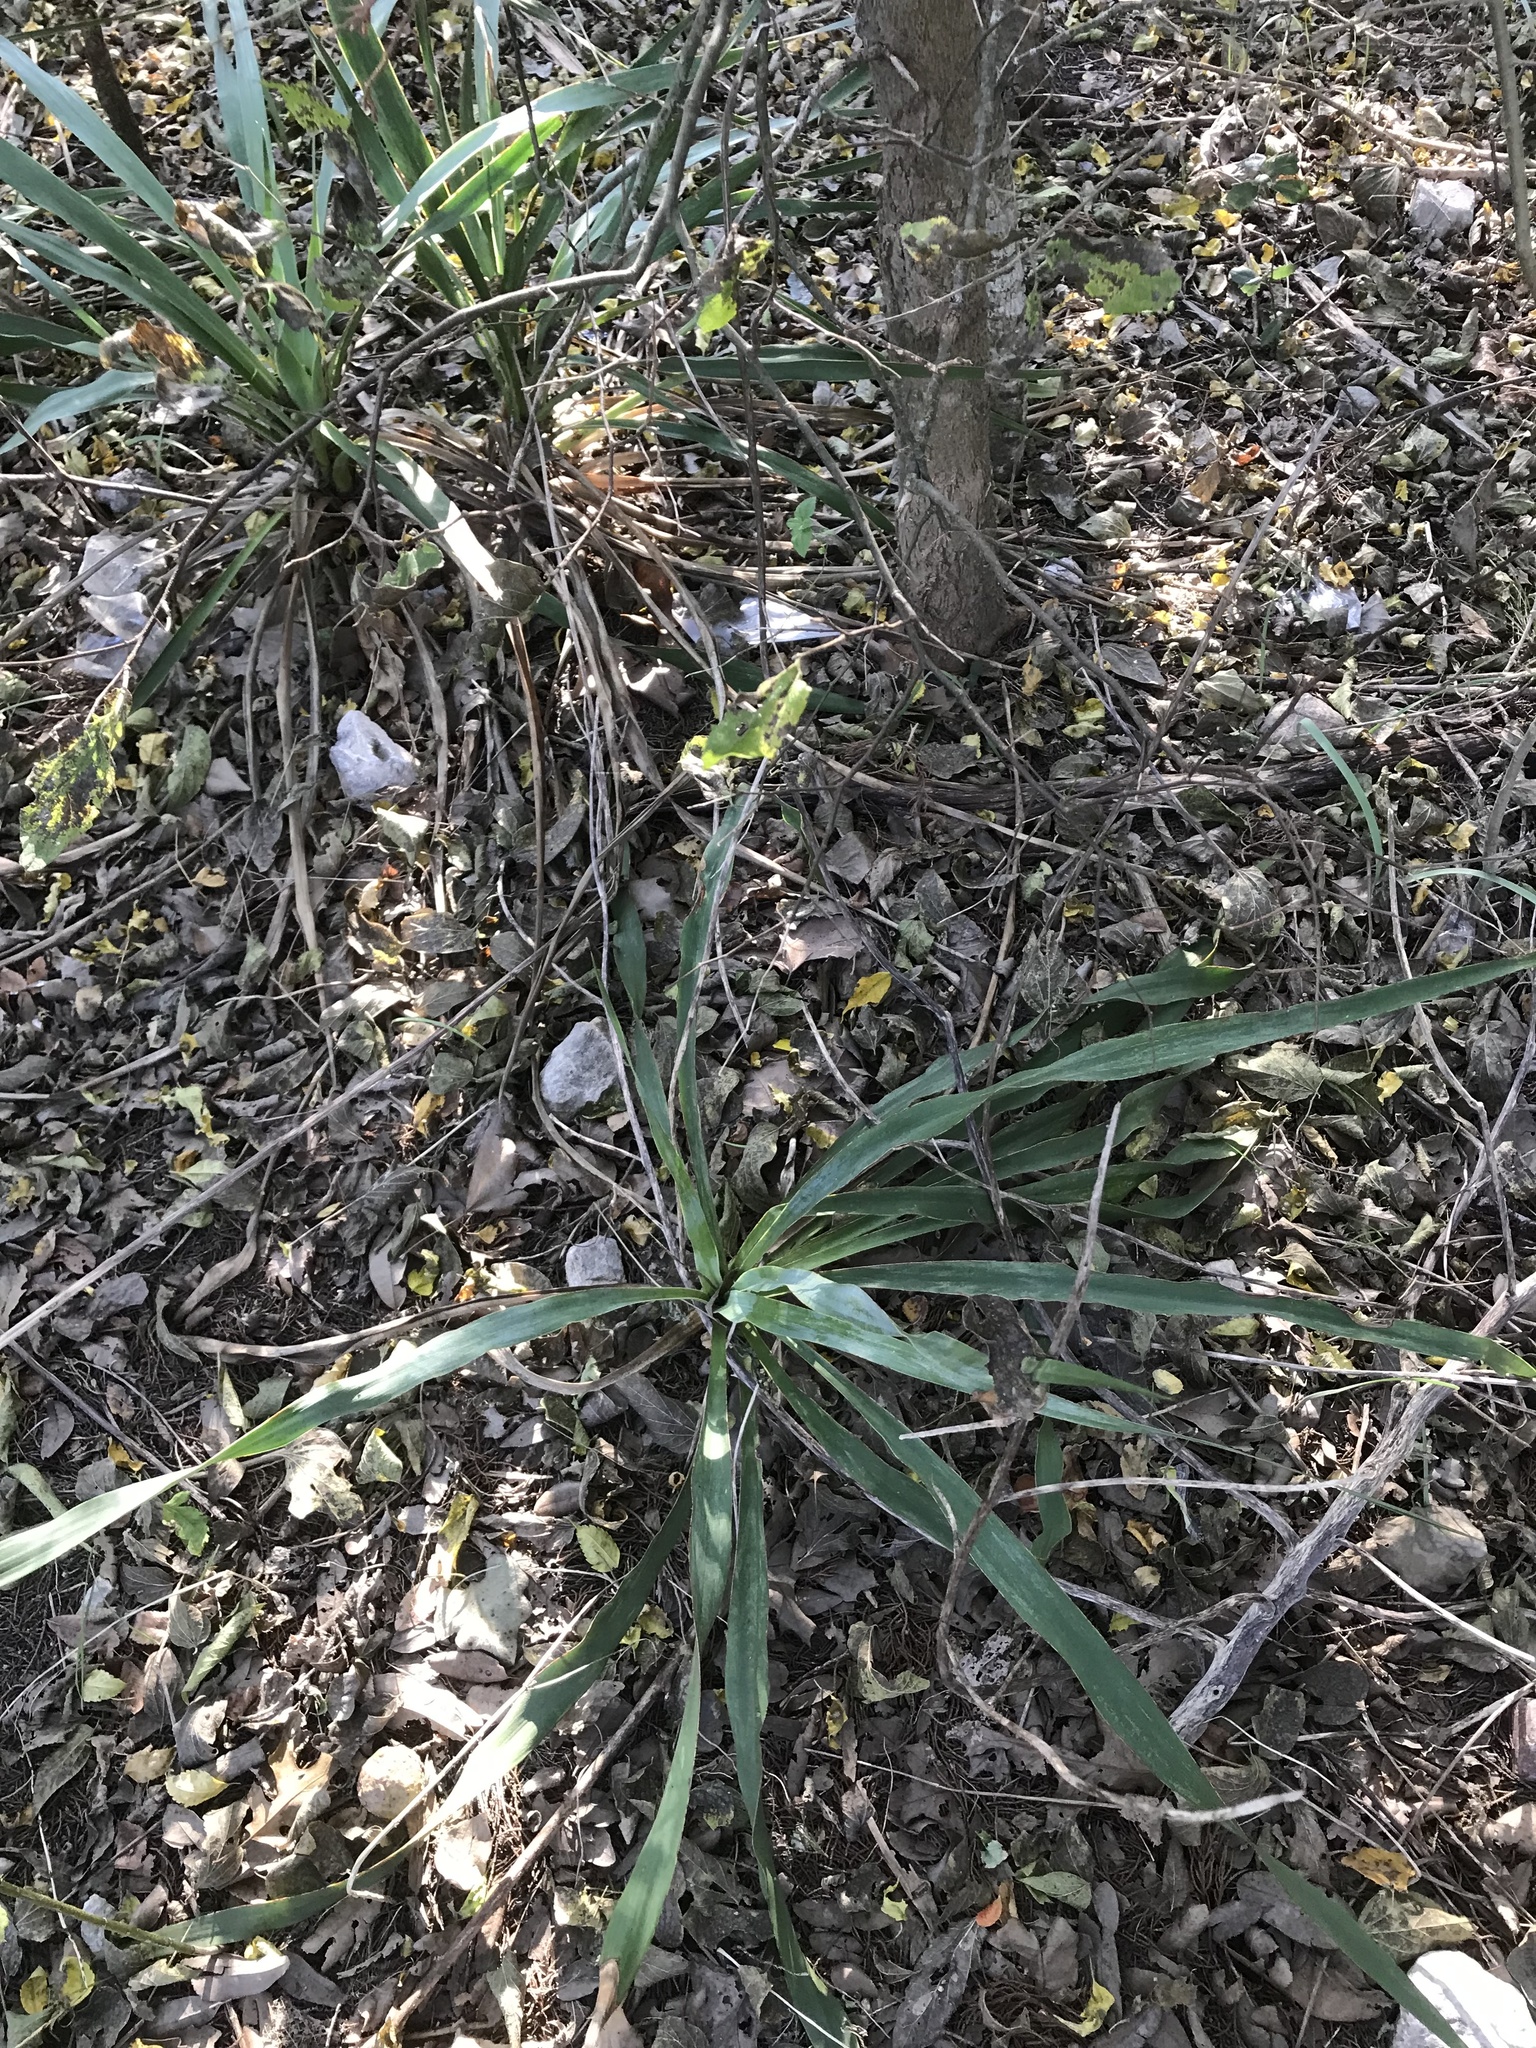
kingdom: Plantae
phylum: Tracheophyta
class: Liliopsida
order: Asparagales
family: Asparagaceae
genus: Yucca
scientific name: Yucca rupicola
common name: Twisted-leaf spanish-dagger
